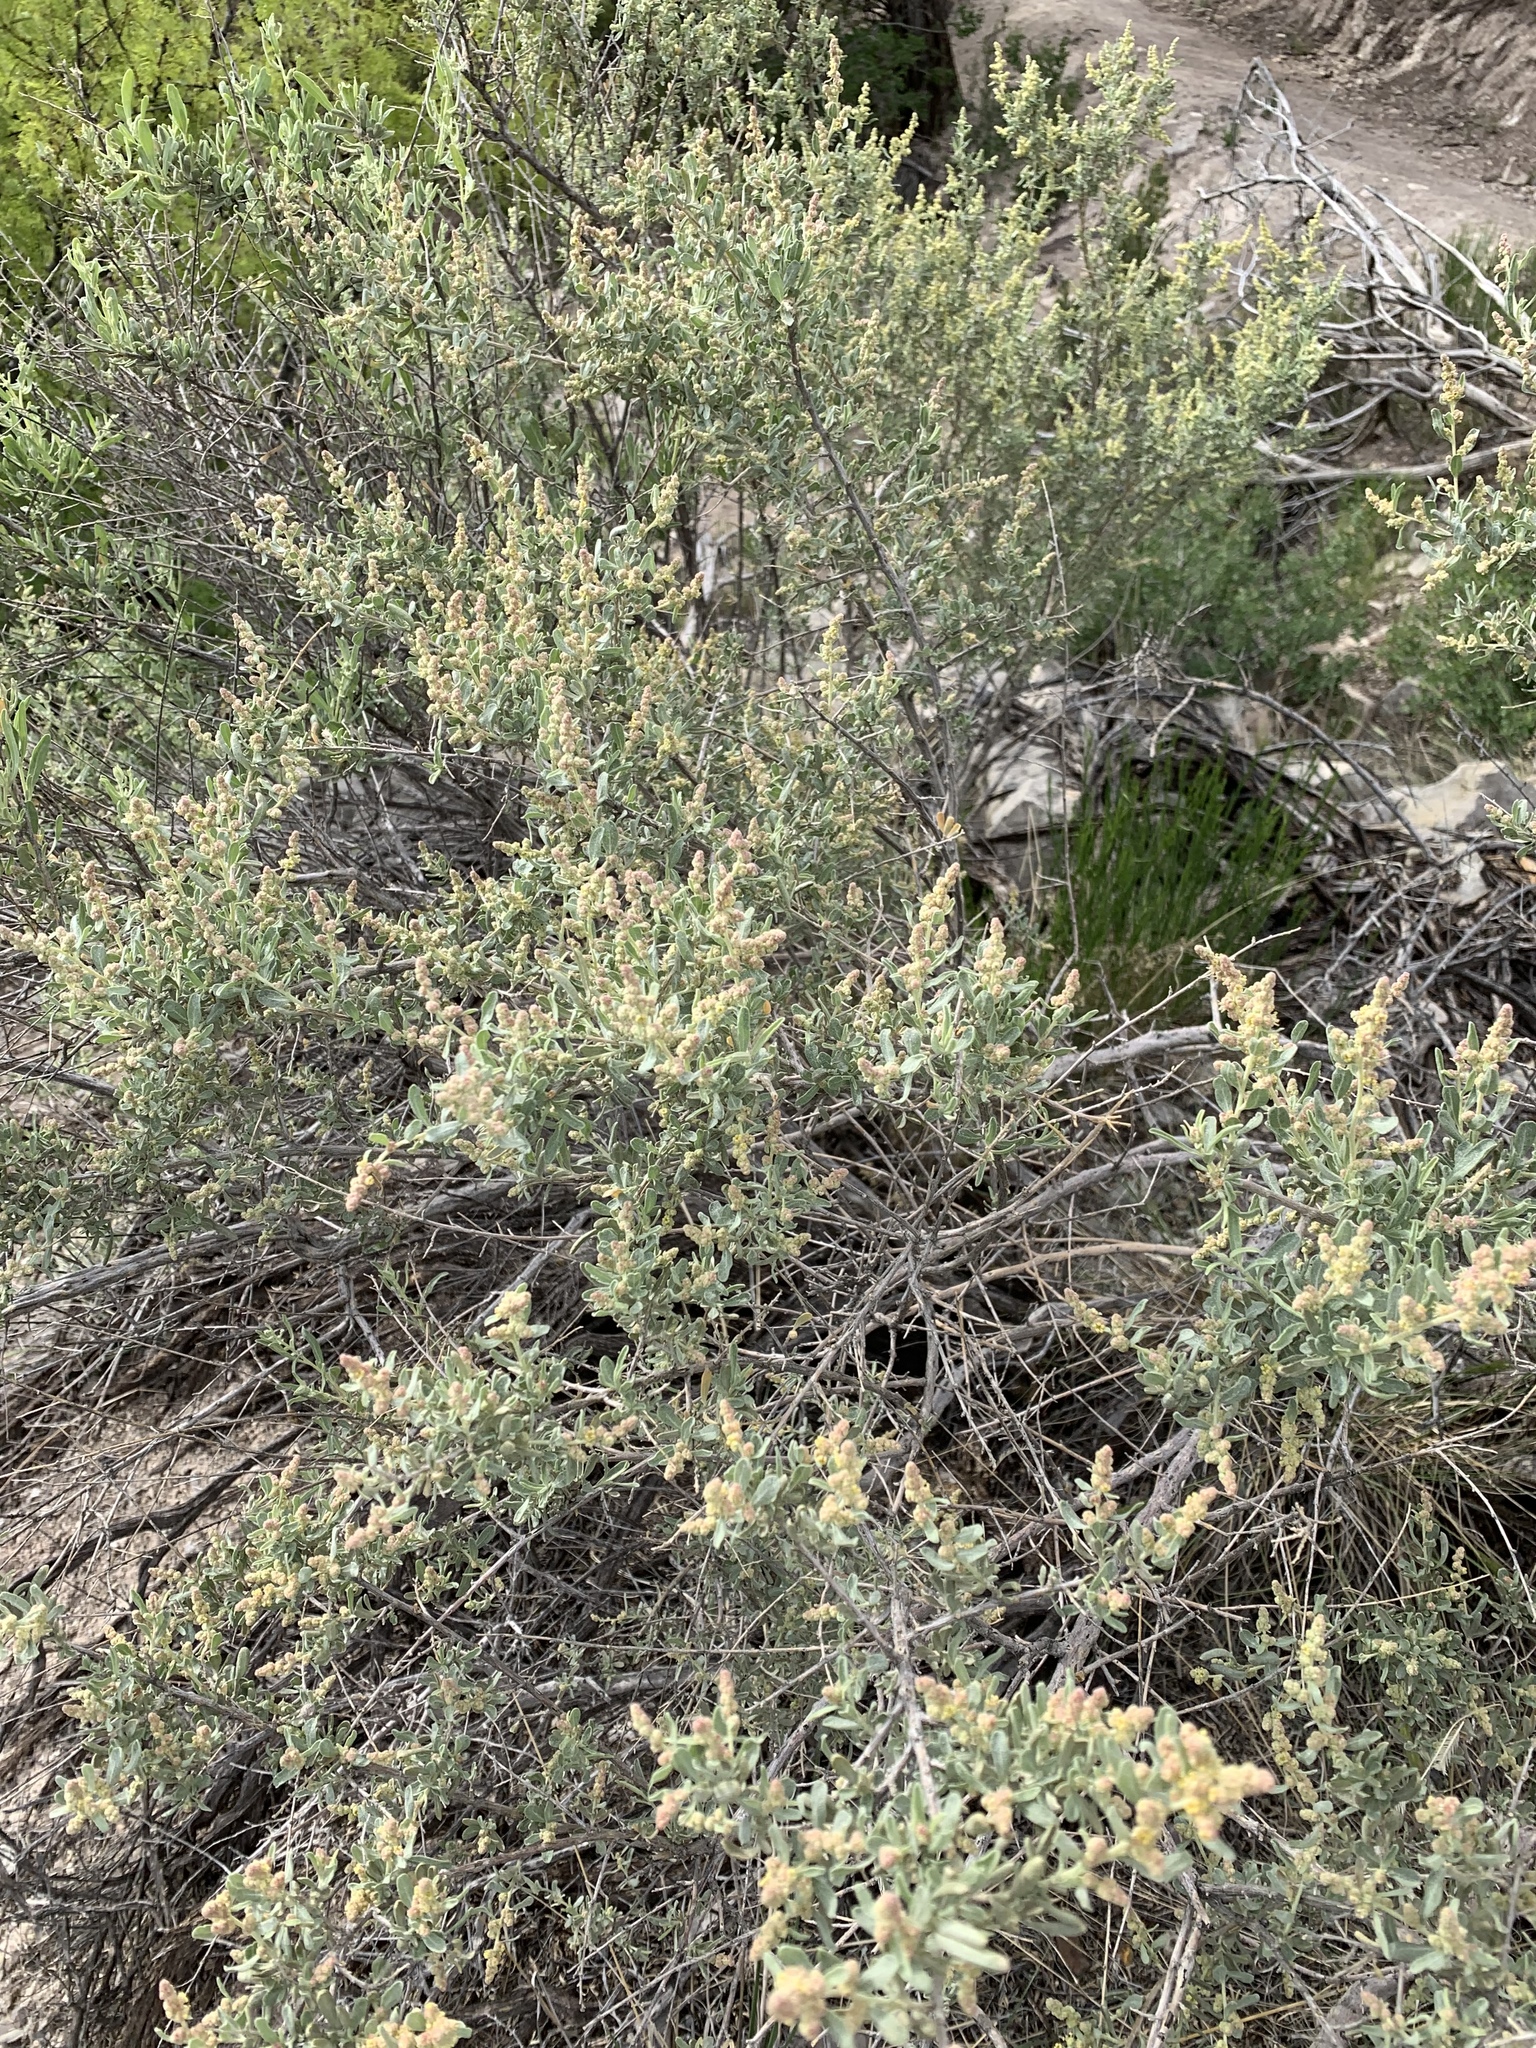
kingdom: Plantae
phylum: Tracheophyta
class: Magnoliopsida
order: Caryophyllales
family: Amaranthaceae
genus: Atriplex
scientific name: Atriplex canescens
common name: Four-wing saltbush
